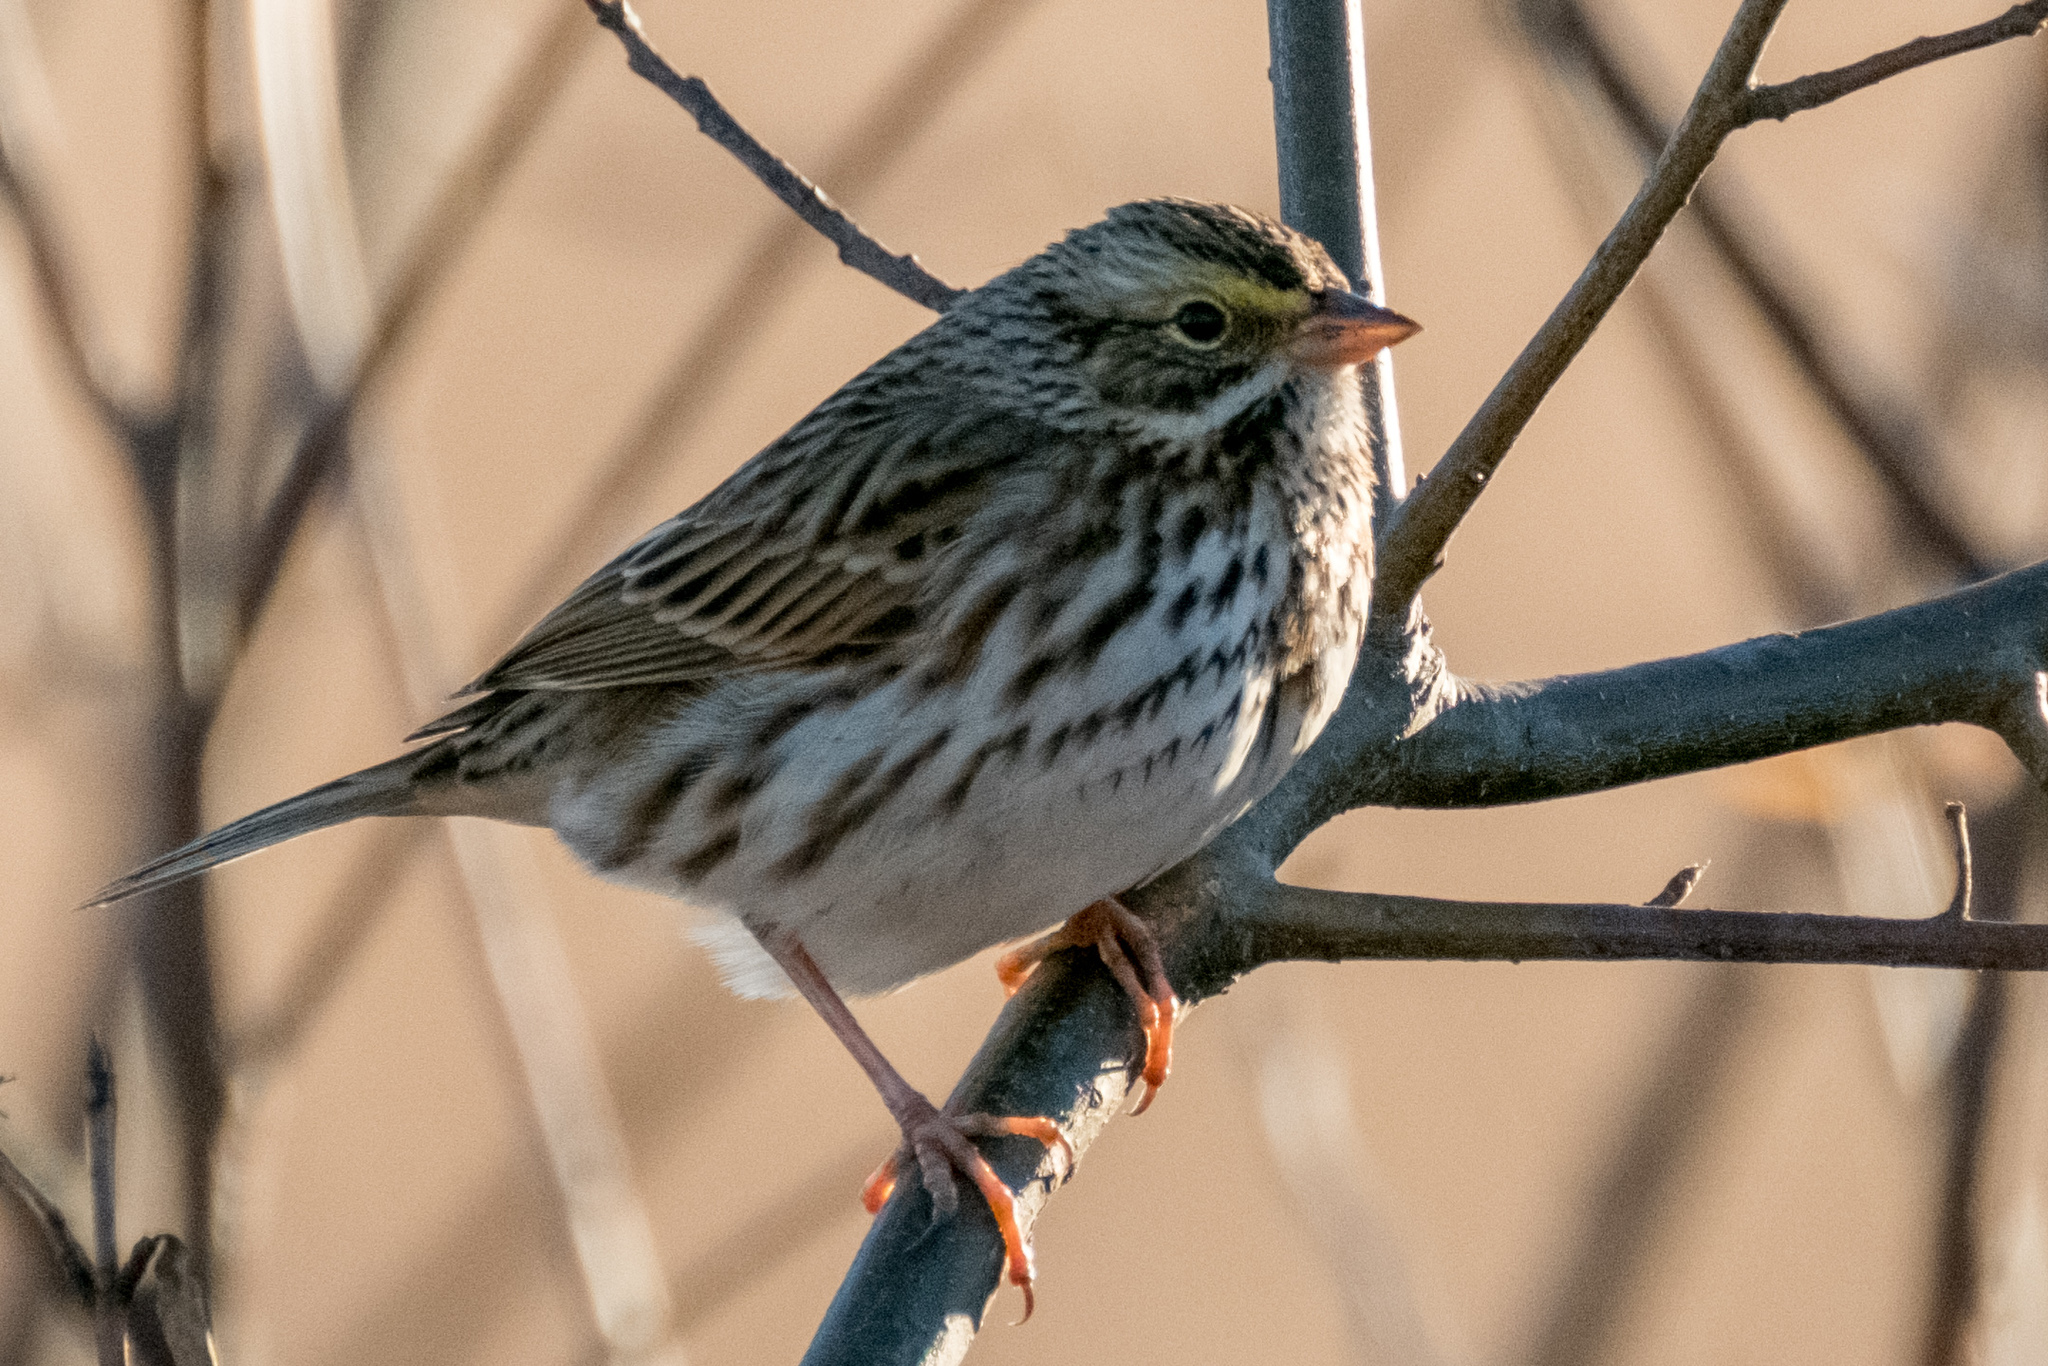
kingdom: Animalia
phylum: Chordata
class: Aves
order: Passeriformes
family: Passerellidae
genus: Passerculus
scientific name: Passerculus sandwichensis
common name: Savannah sparrow
